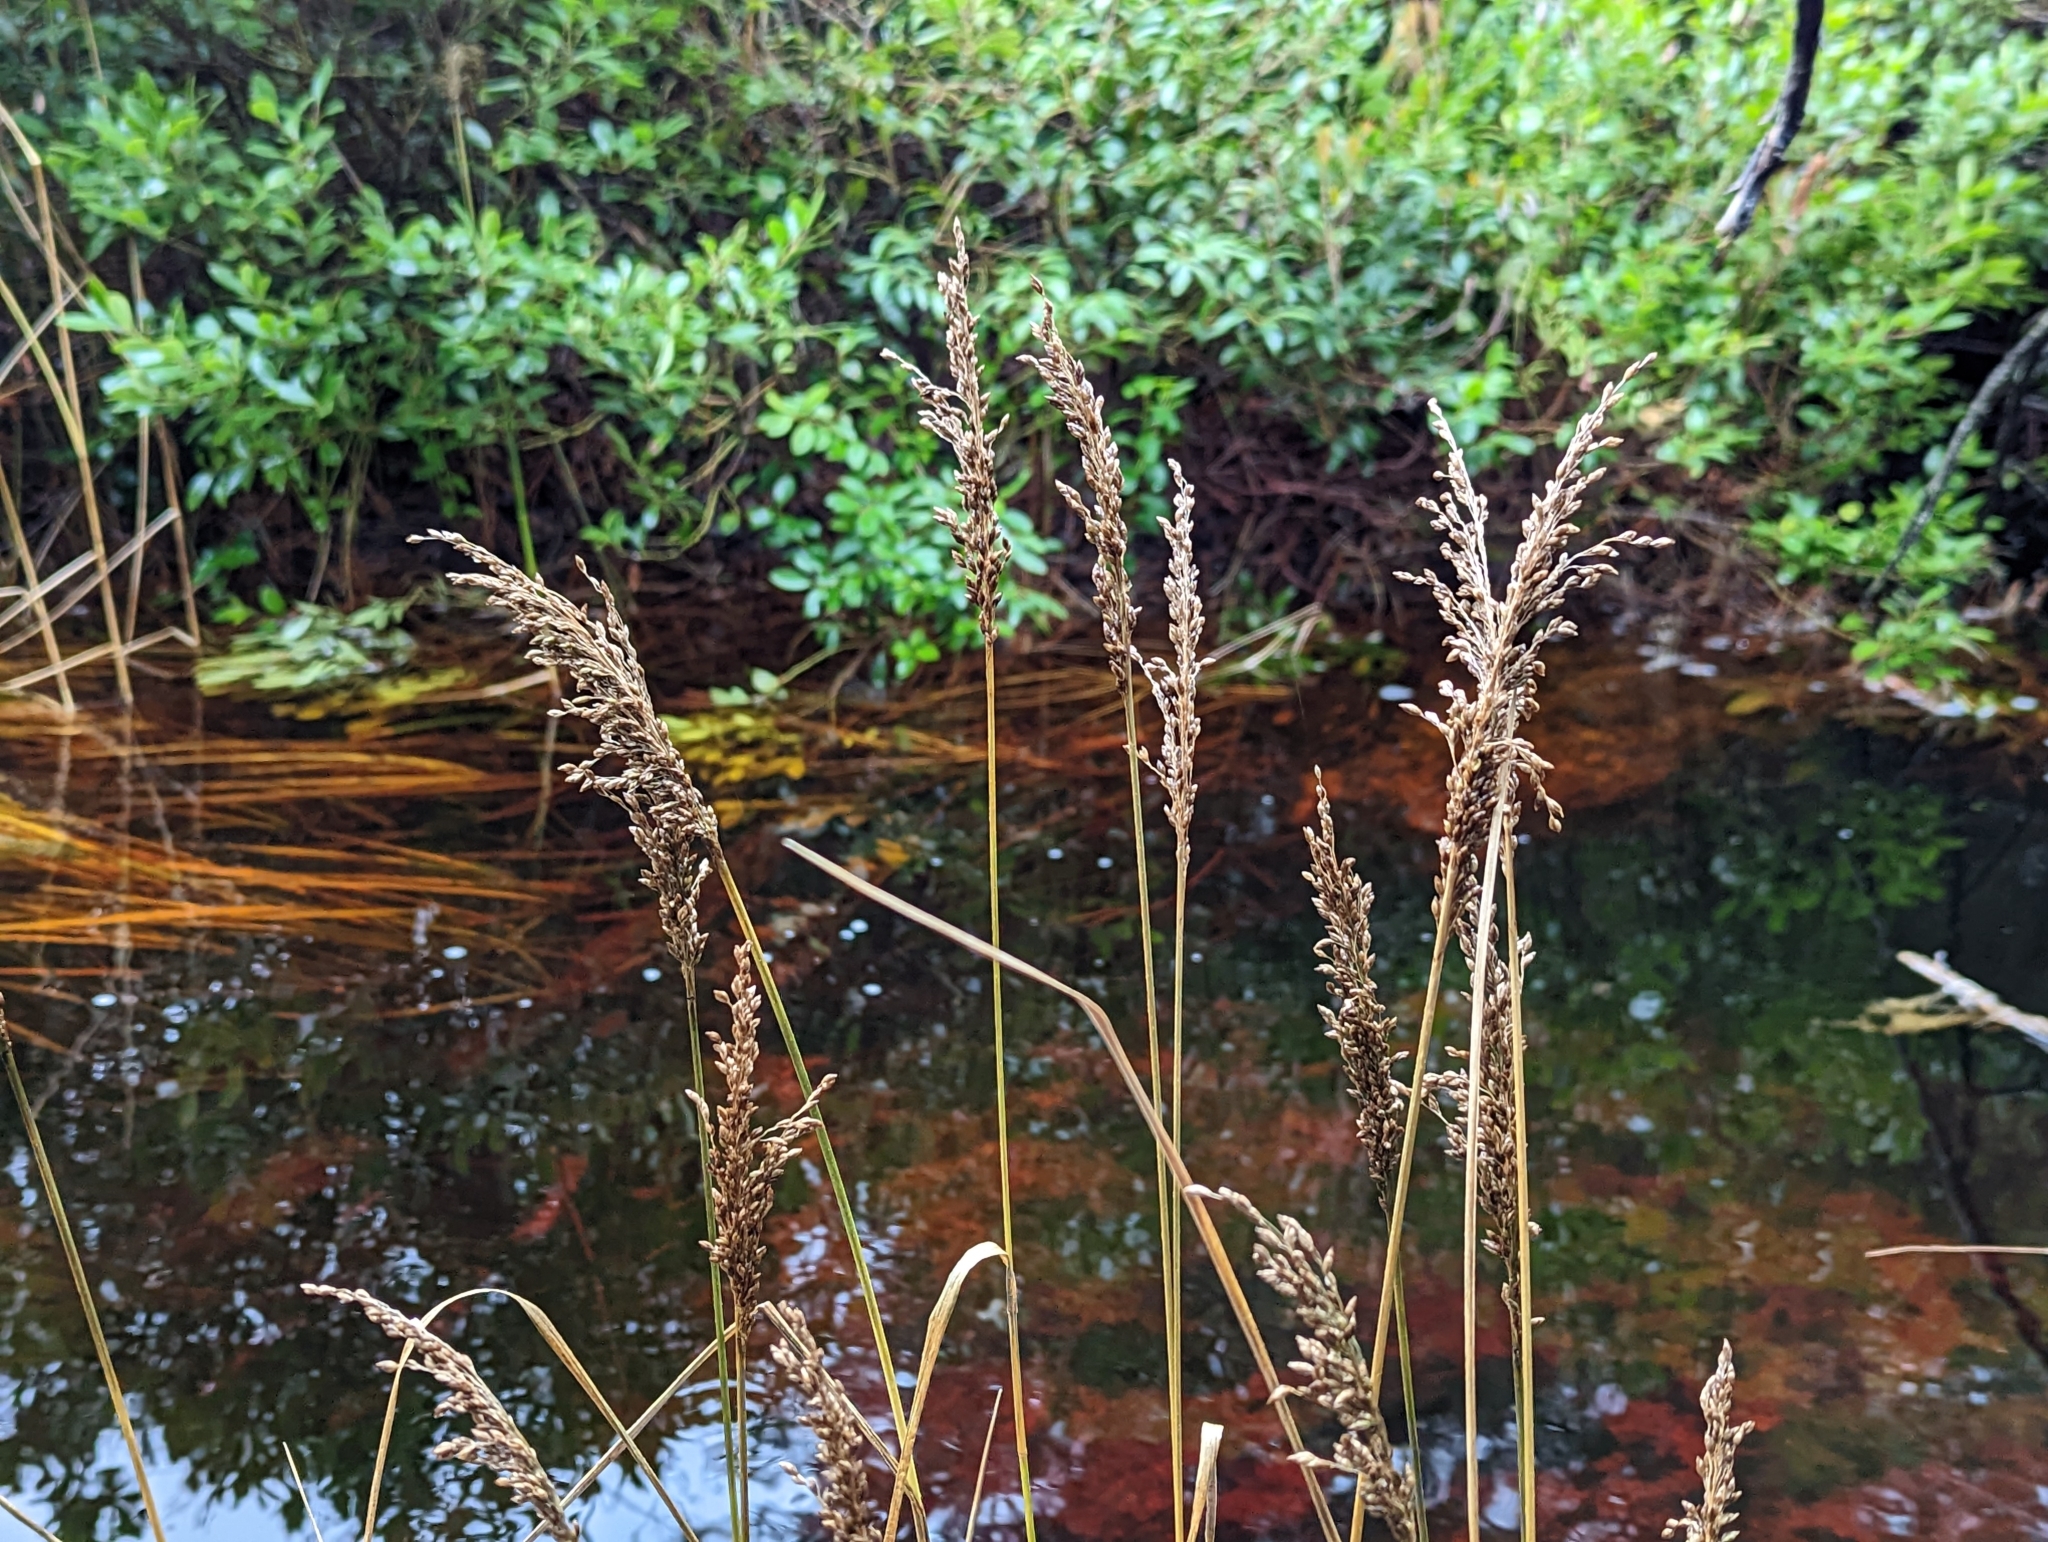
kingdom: Plantae
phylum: Tracheophyta
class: Liliopsida
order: Poales
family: Poaceae
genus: Glyceria
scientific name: Glyceria obtusa
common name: Atlantic mannagrass
